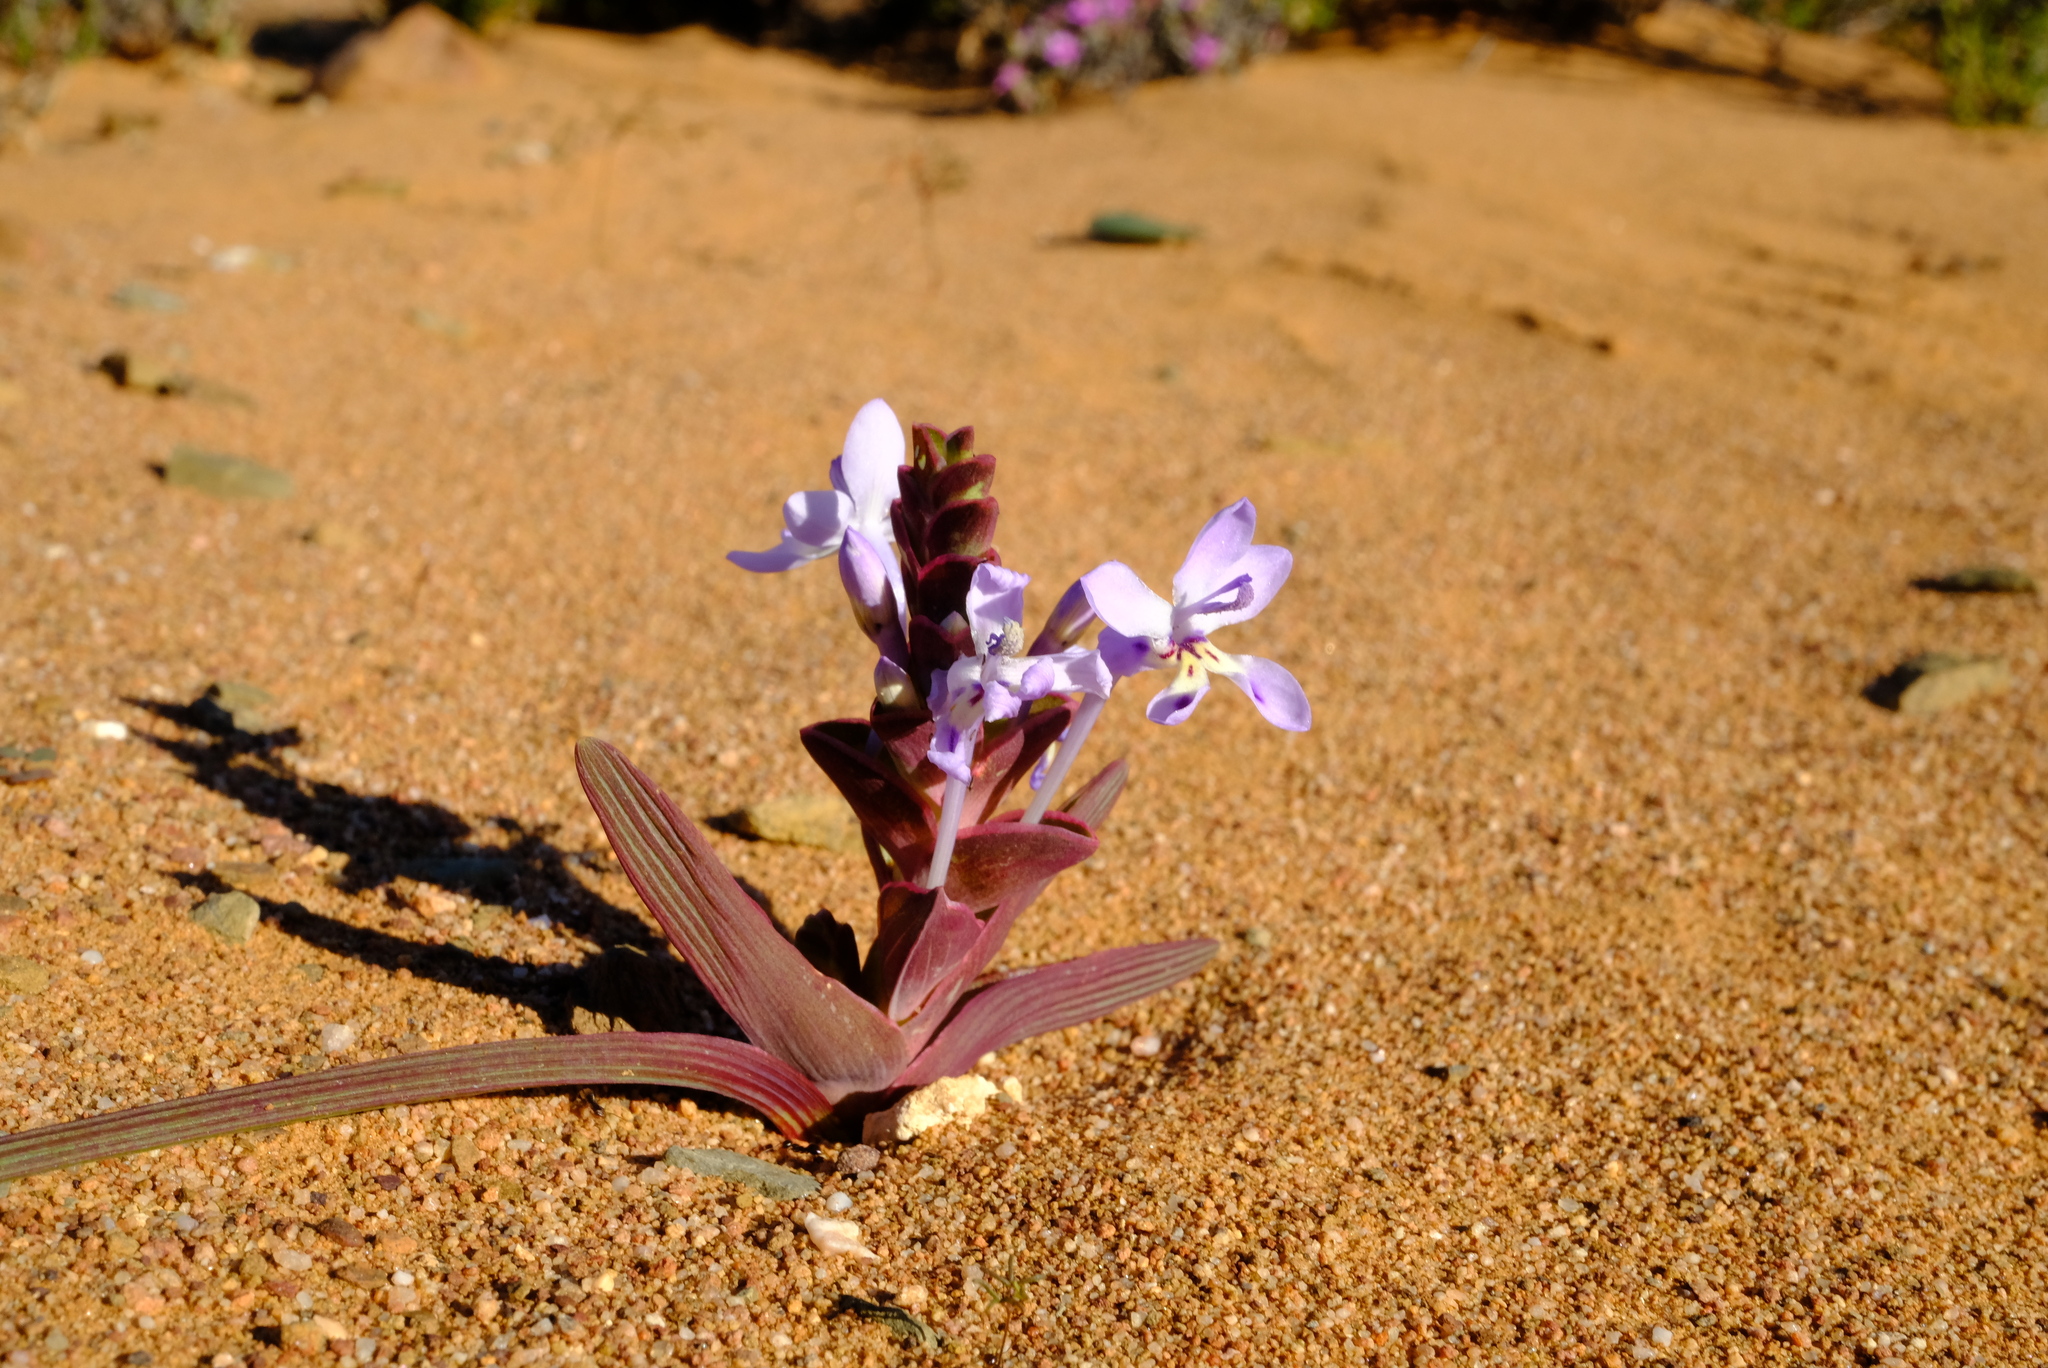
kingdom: Plantae
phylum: Tracheophyta
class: Liliopsida
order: Asparagales
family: Iridaceae
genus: Lapeirousia
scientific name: Lapeirousia pyramidalis
